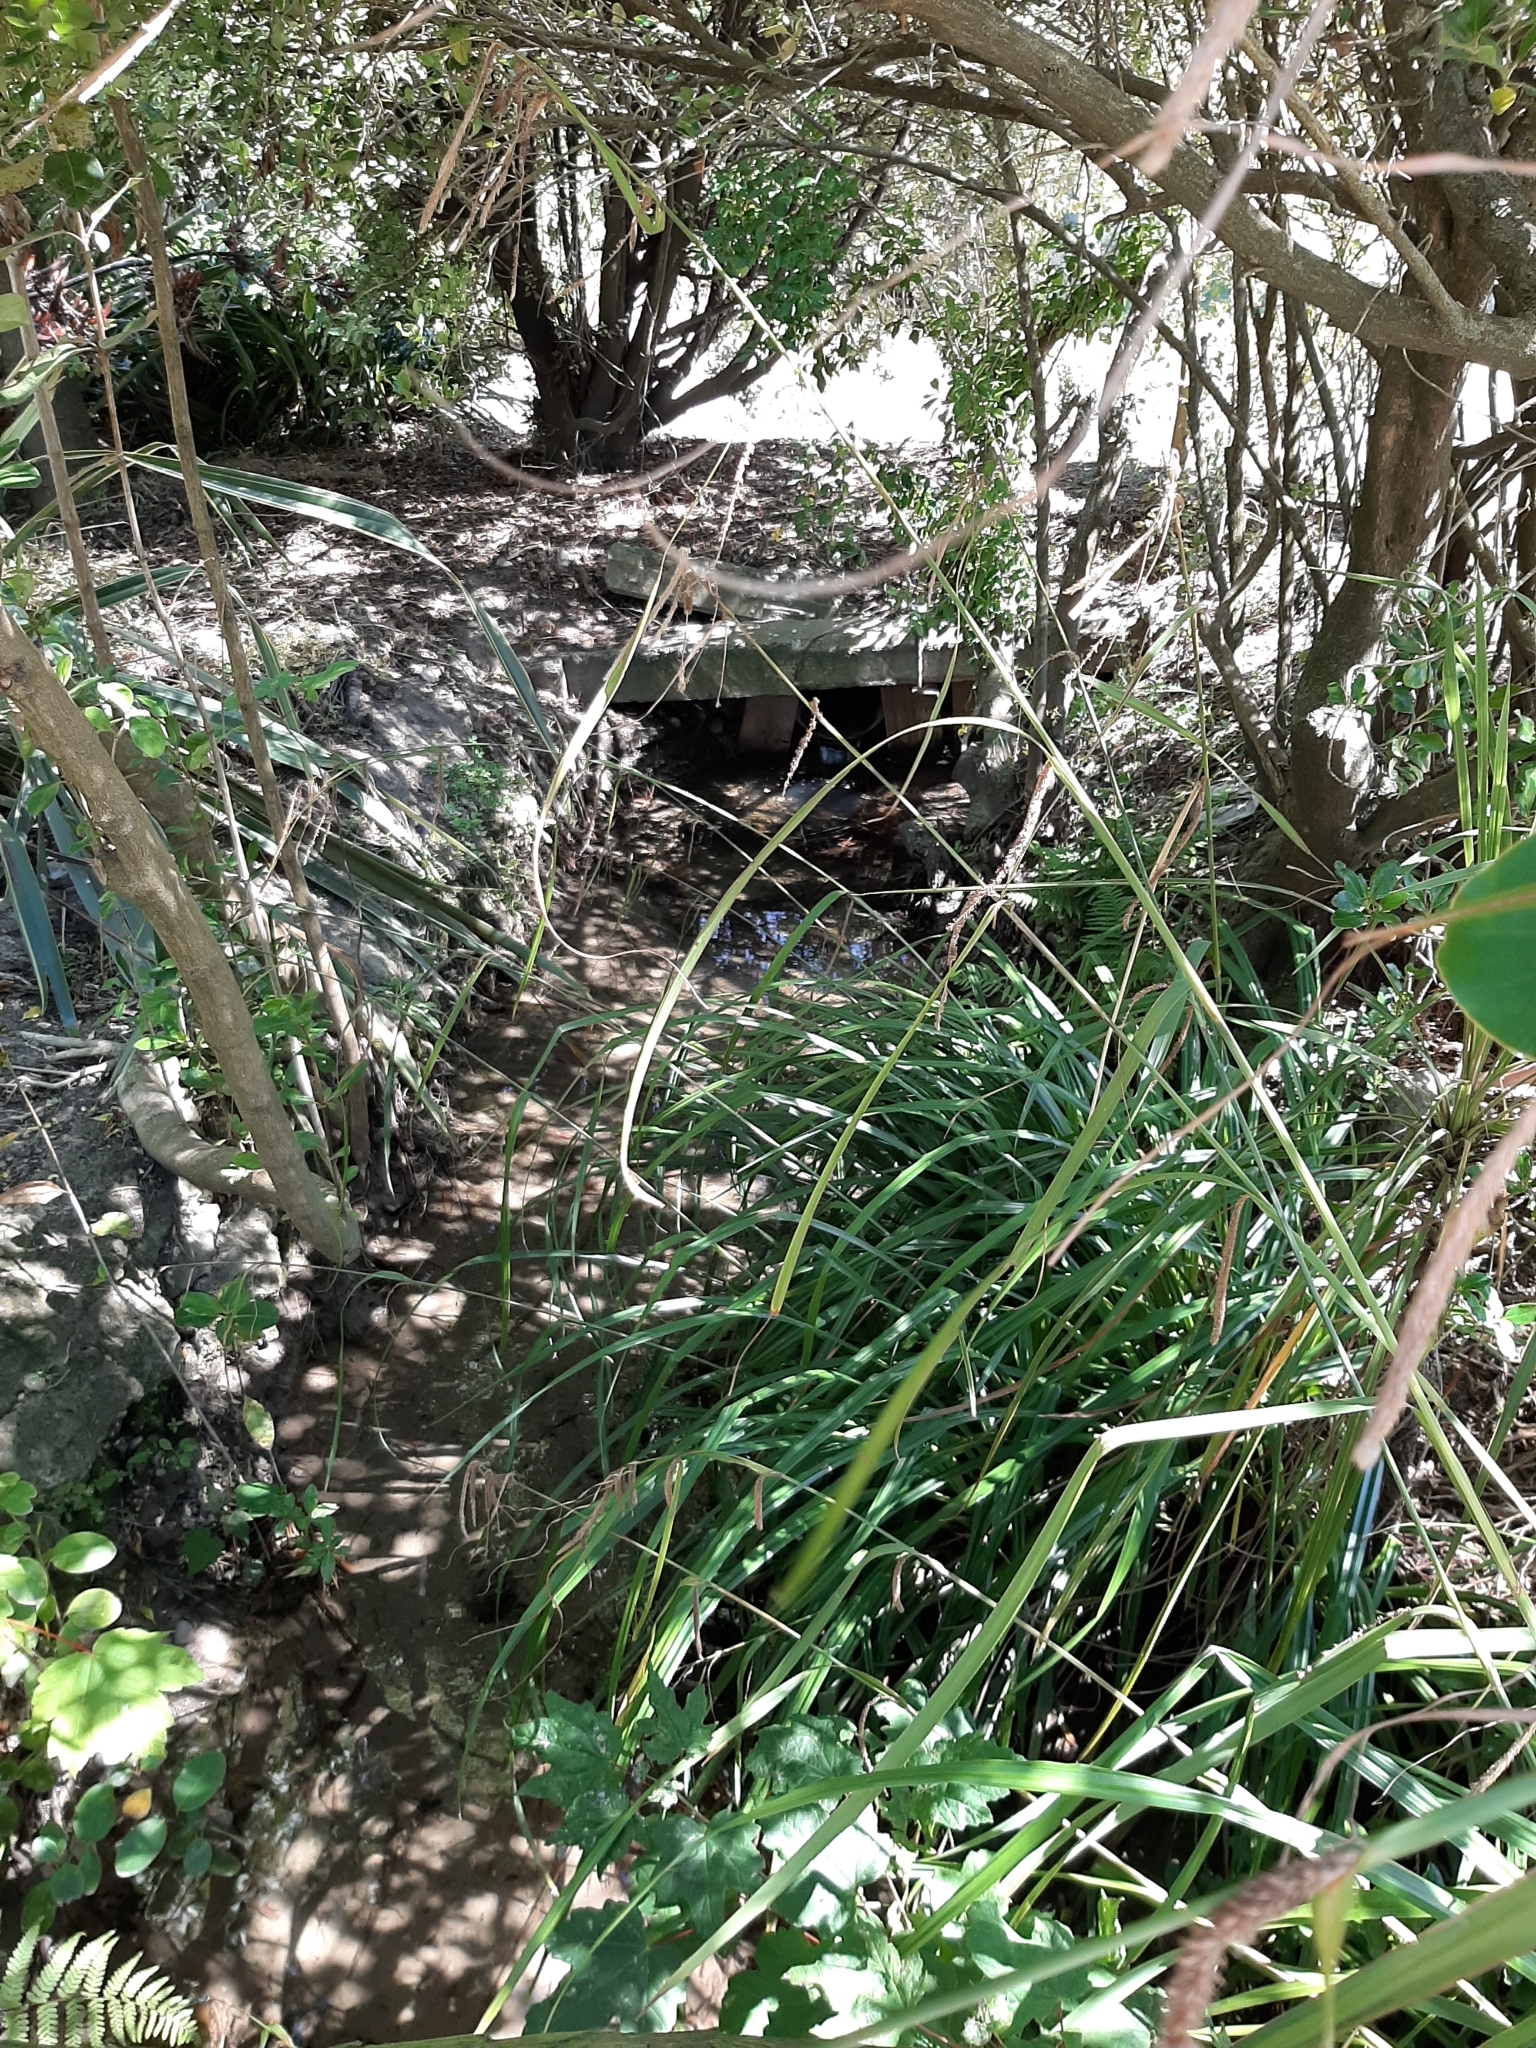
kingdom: Plantae
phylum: Tracheophyta
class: Liliopsida
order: Poales
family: Cyperaceae
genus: Carex
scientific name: Carex pendula
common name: Pendulous sedge
